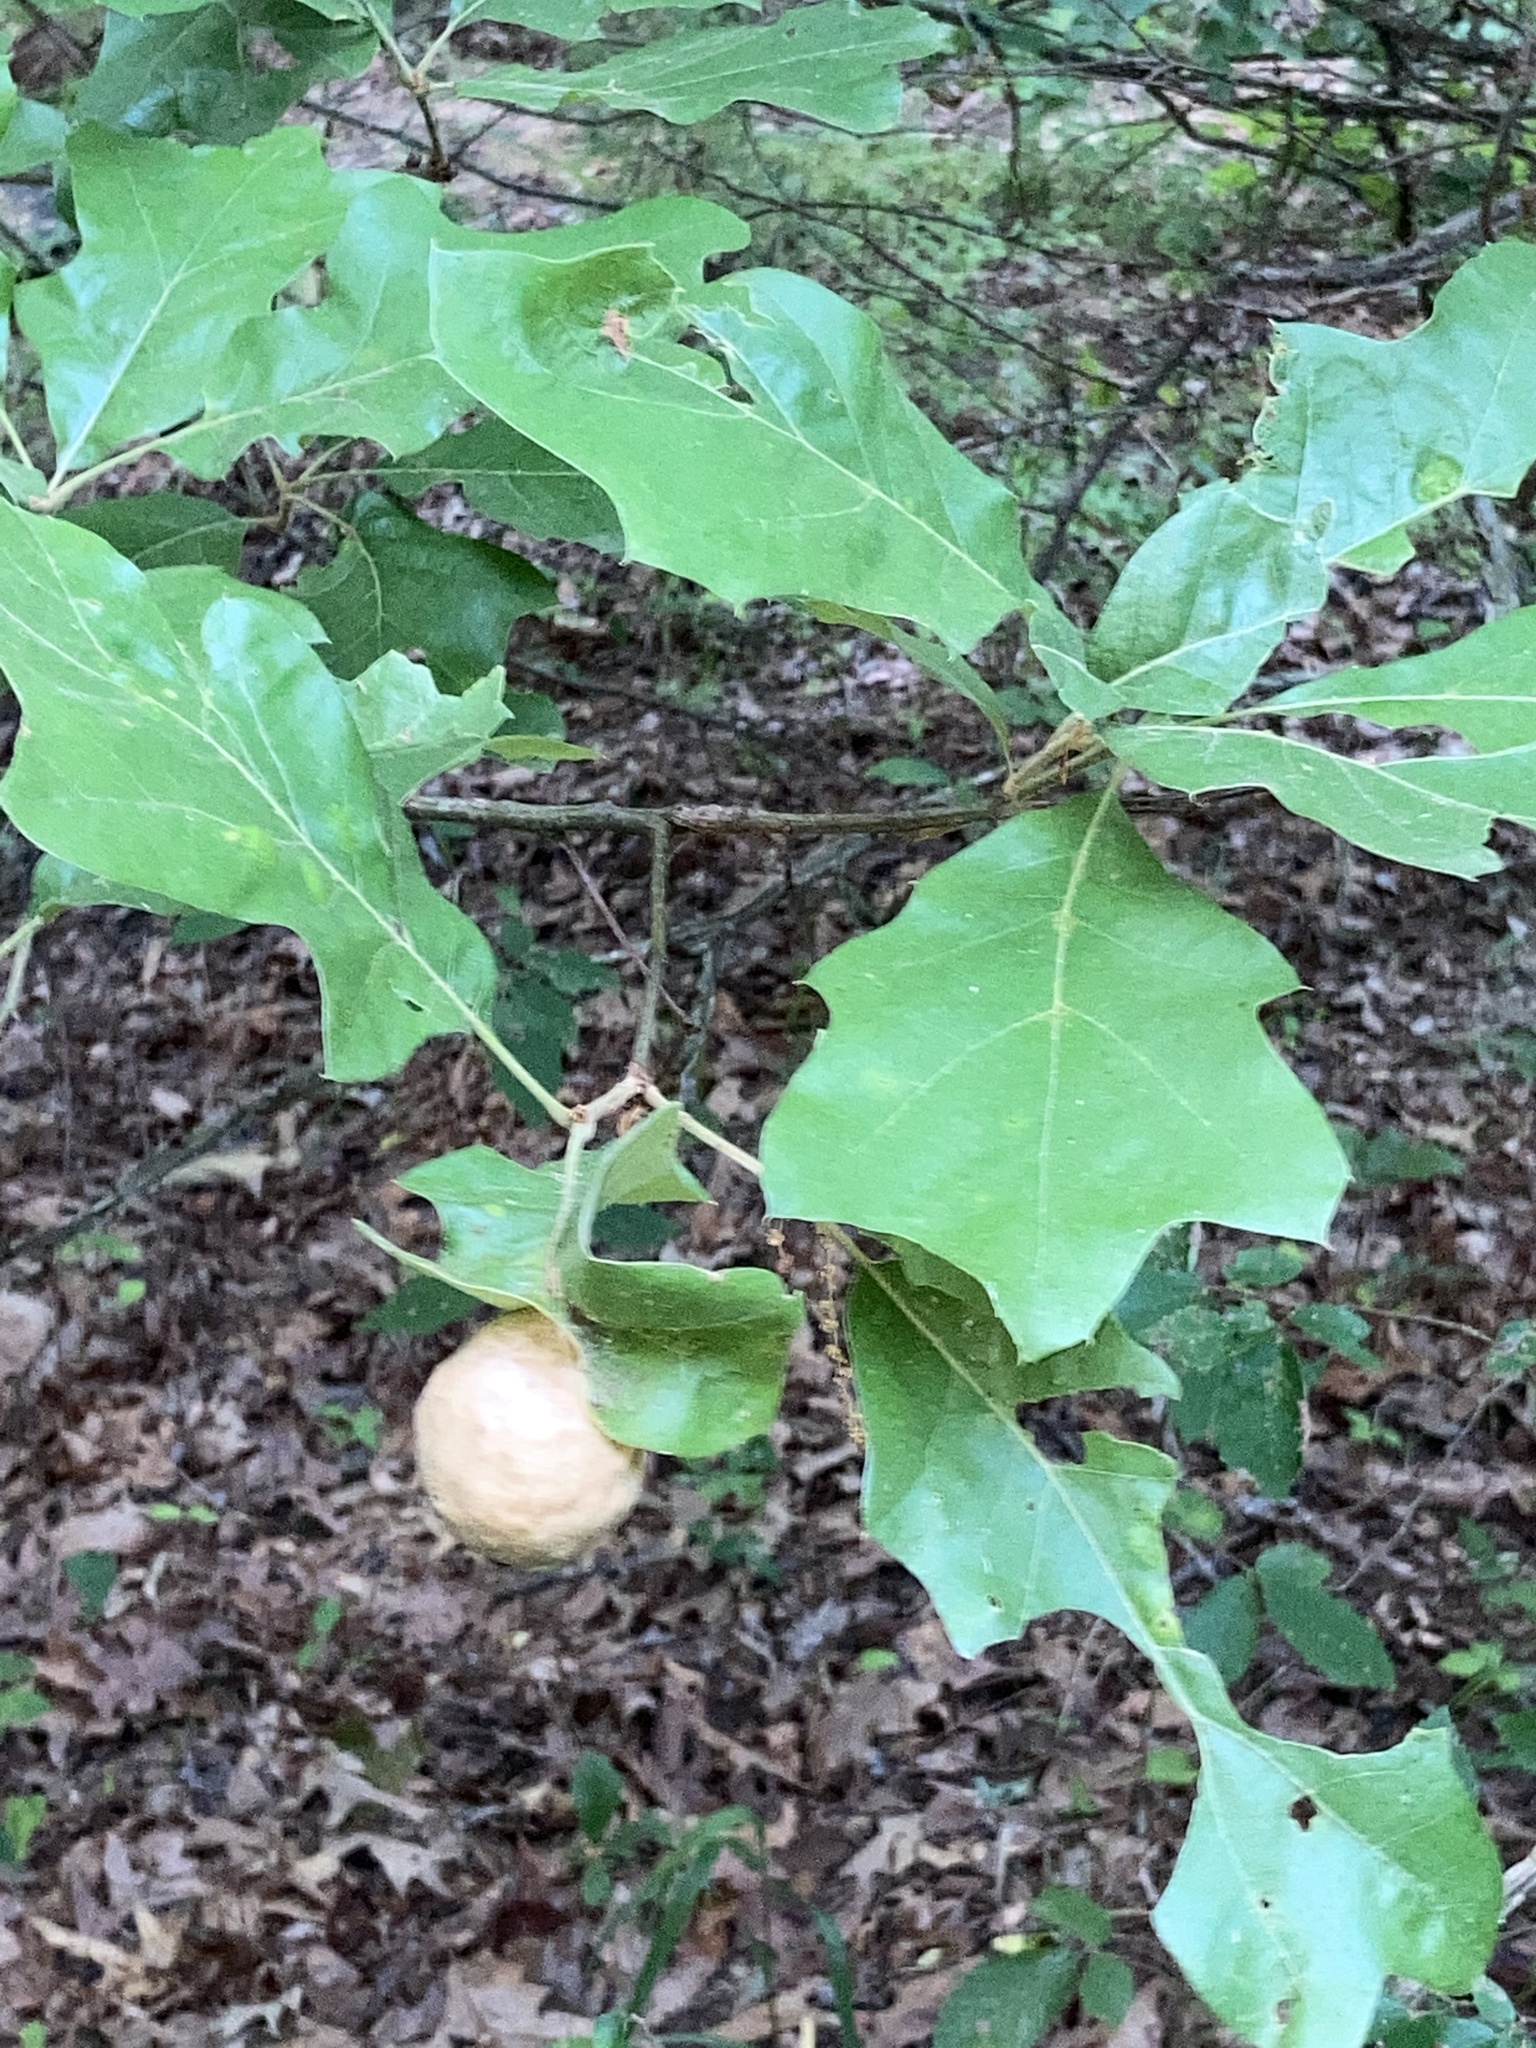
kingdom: Animalia
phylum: Arthropoda
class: Insecta
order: Hymenoptera
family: Cynipidae
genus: Amphibolips
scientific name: Amphibolips
